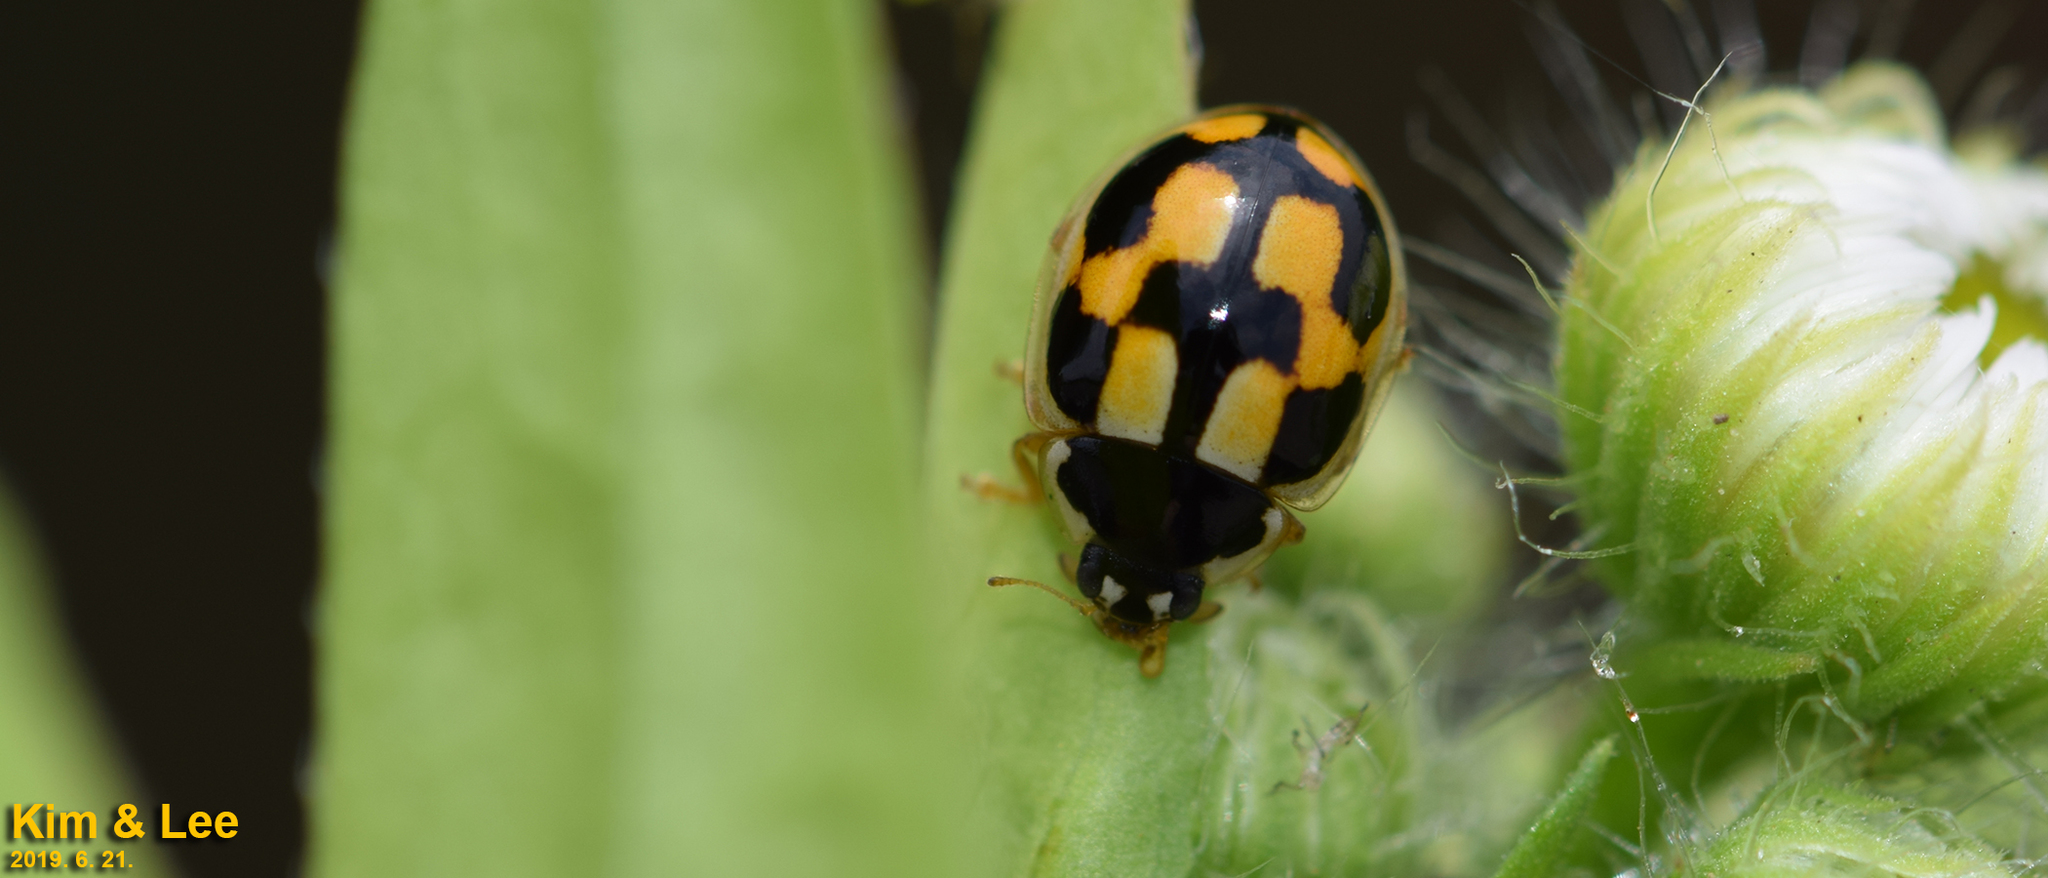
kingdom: Animalia
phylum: Arthropoda
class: Insecta
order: Coleoptera
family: Coccinellidae
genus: Propylea
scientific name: Propylea japonica
